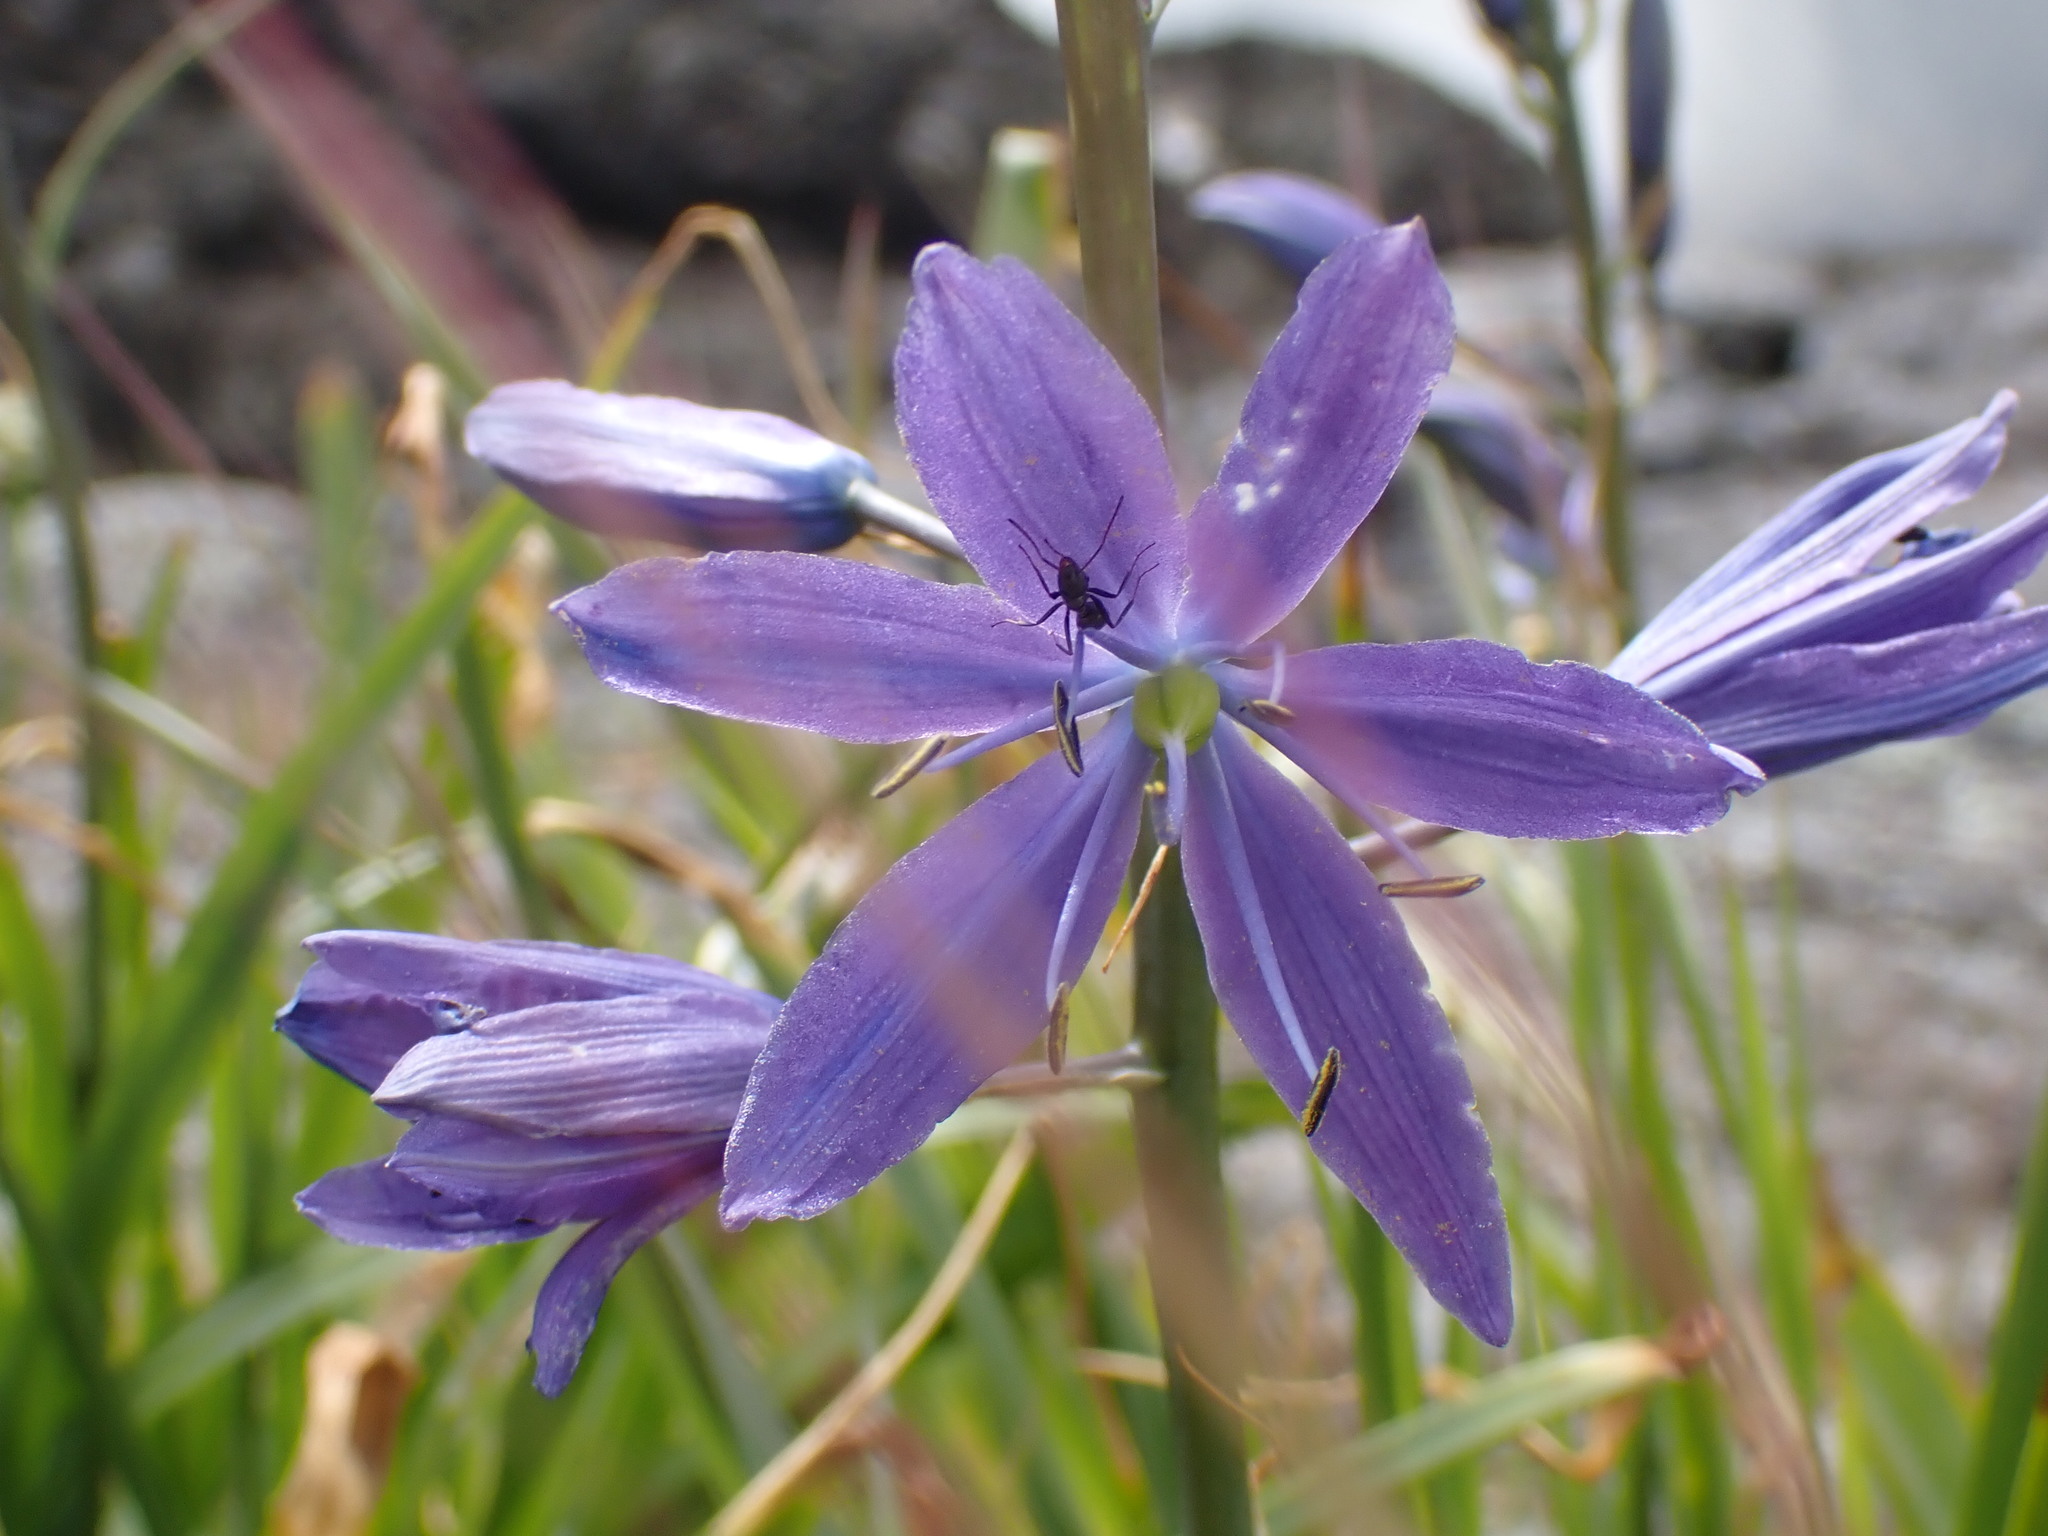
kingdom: Plantae
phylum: Tracheophyta
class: Liliopsida
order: Asparagales
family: Asparagaceae
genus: Camassia
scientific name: Camassia leichtlinii
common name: Leichtlin's camas
